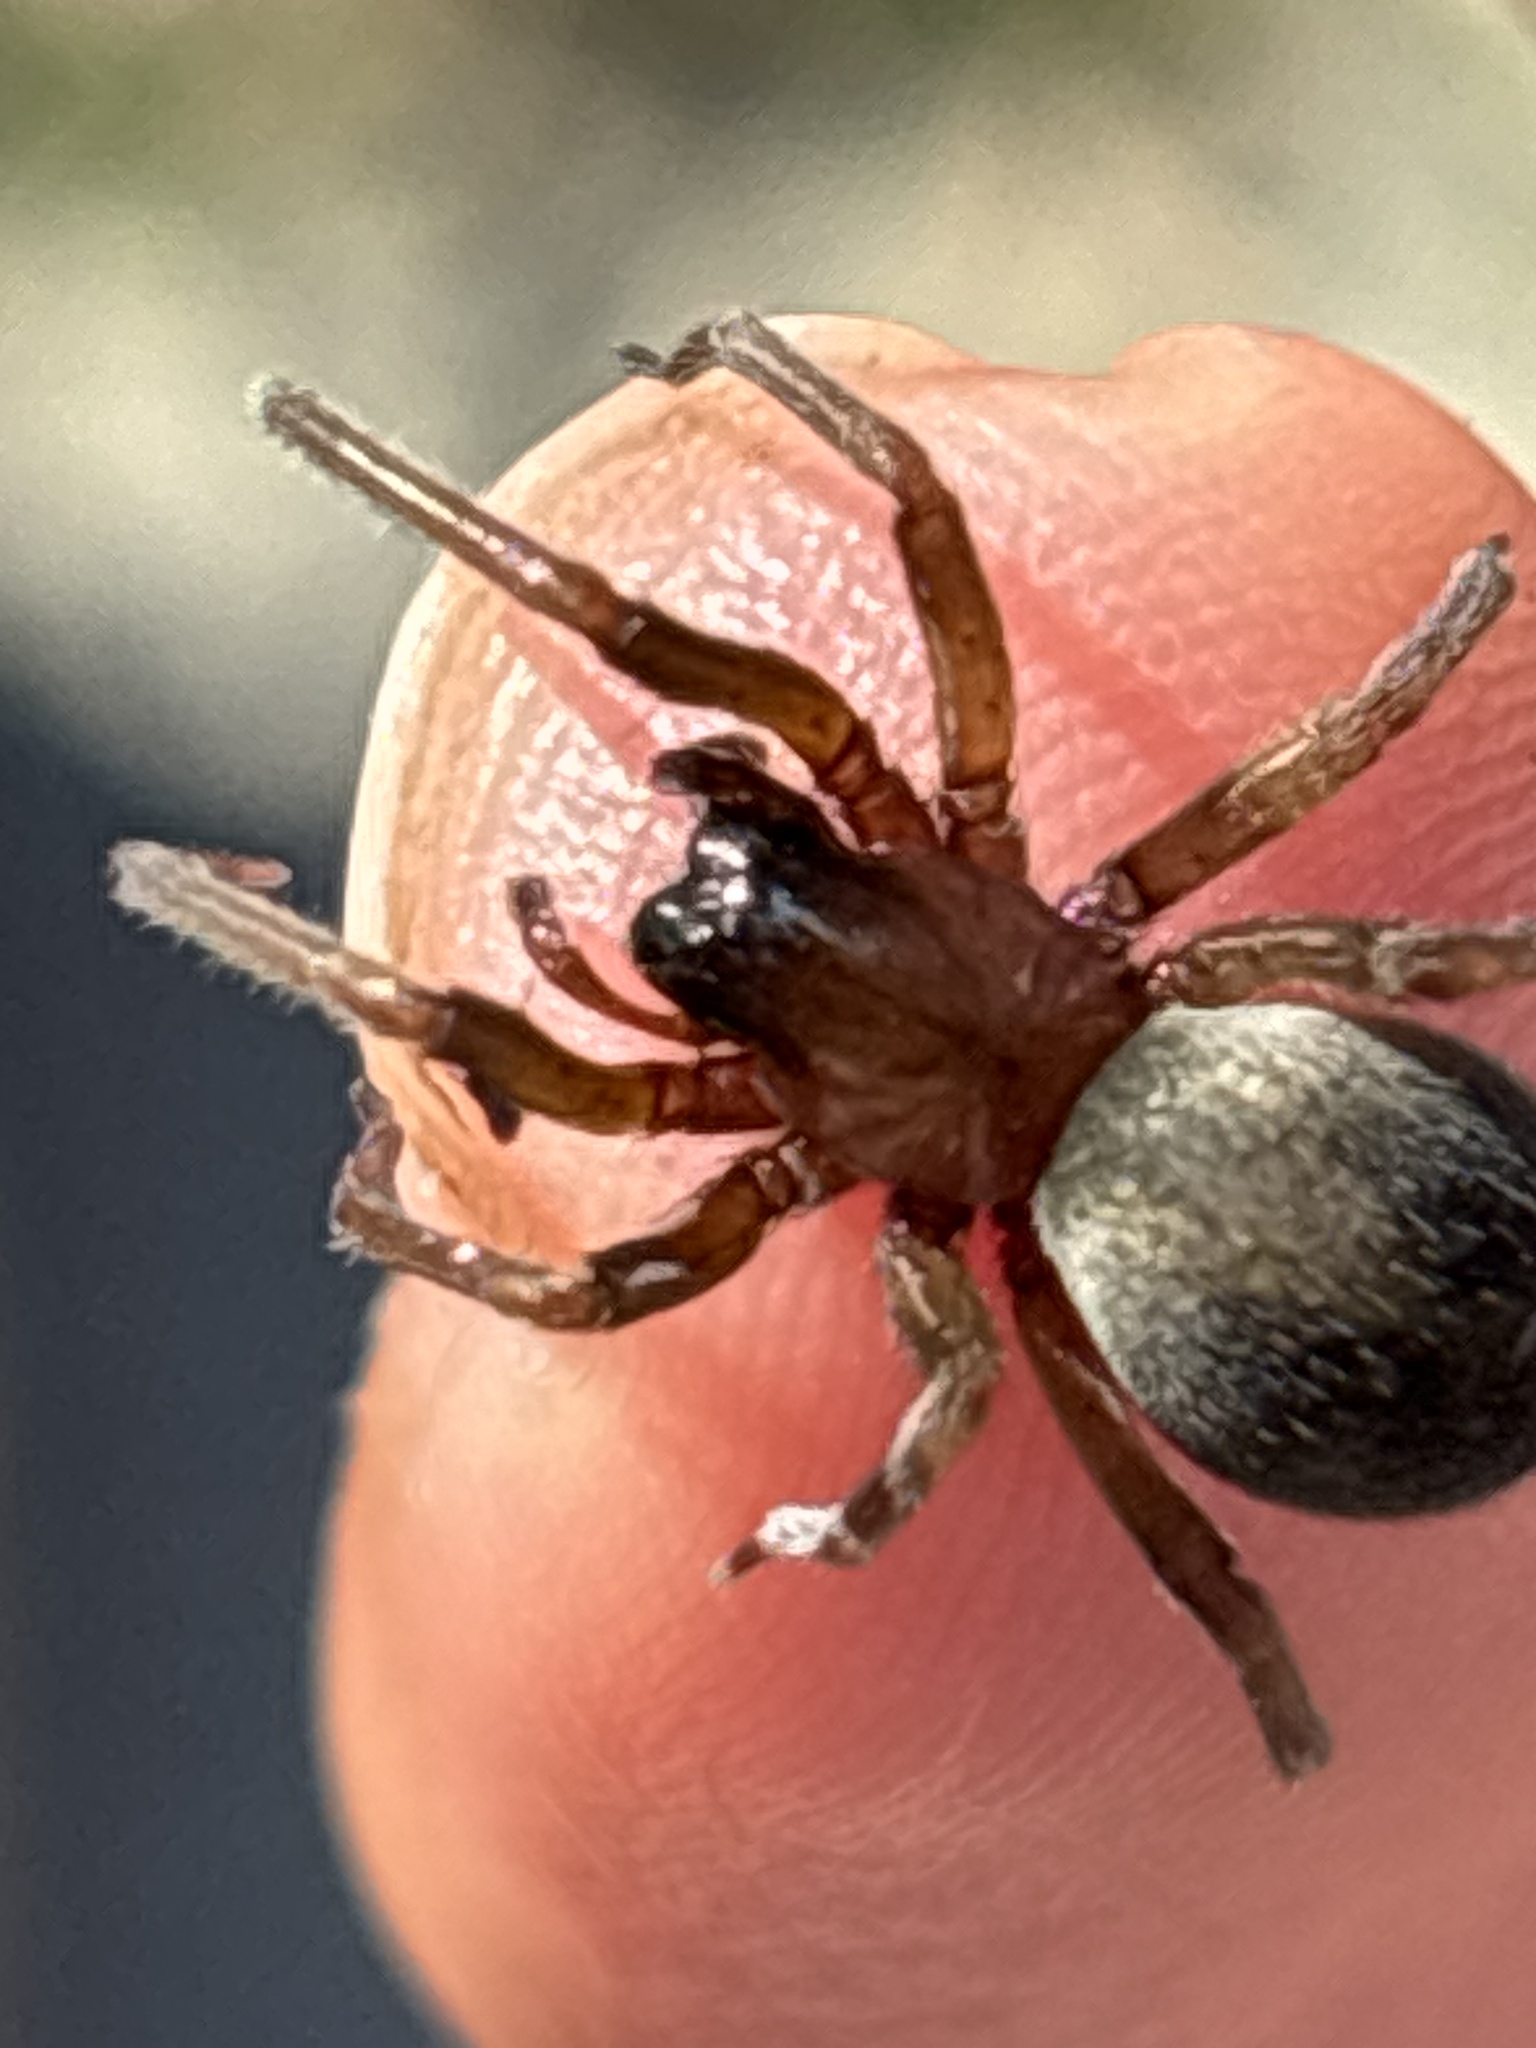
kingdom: Animalia
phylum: Arthropoda
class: Arachnida
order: Araneae
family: Desidae
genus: Metaltella
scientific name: Metaltella simoni
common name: Cribellate spider
